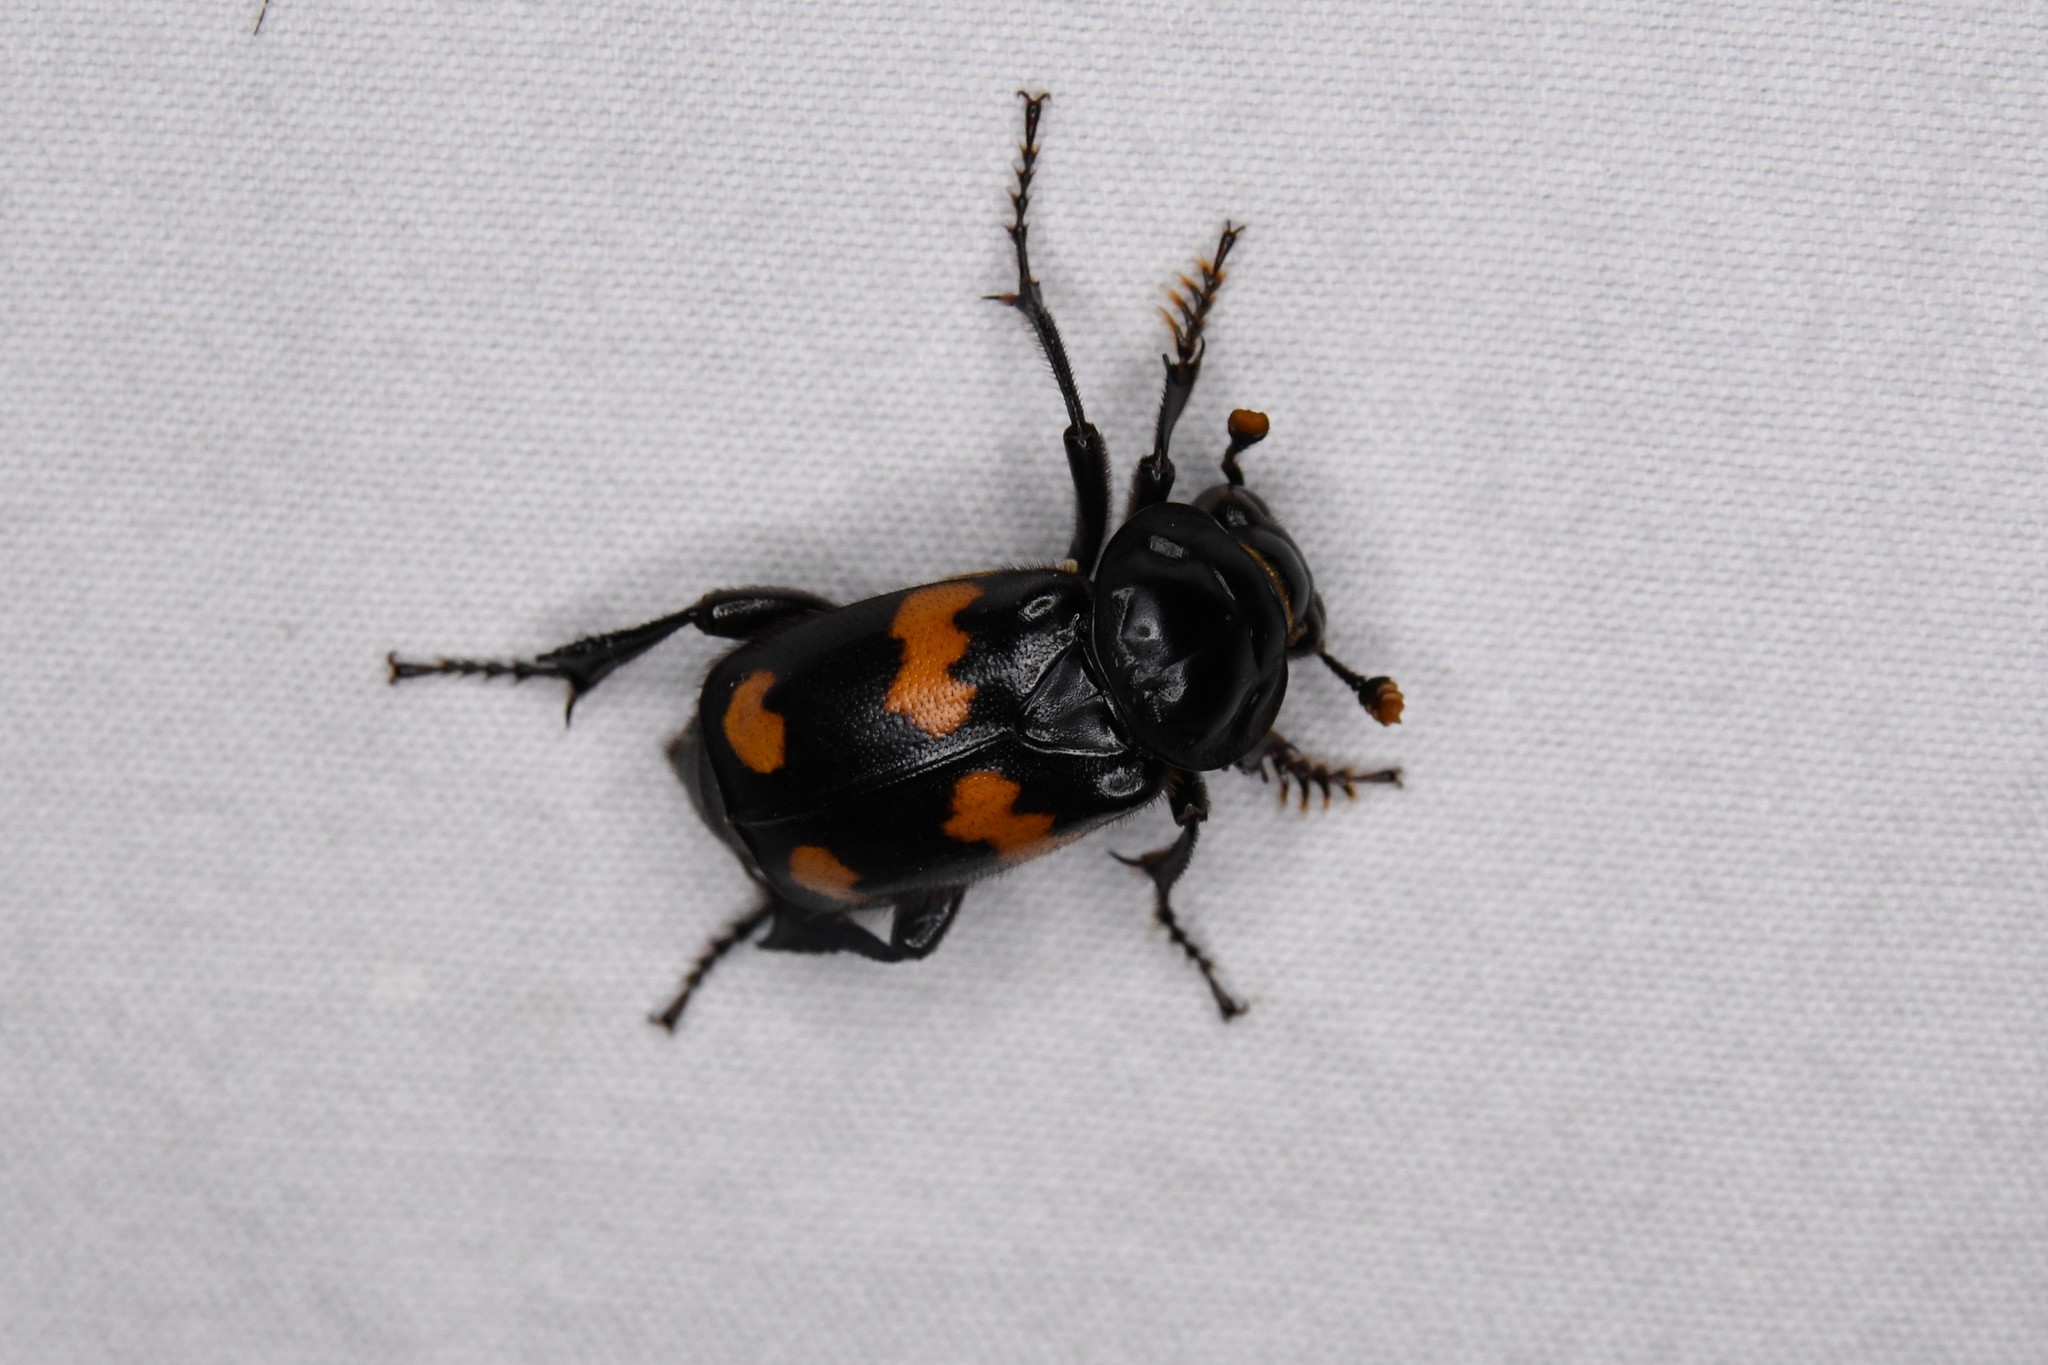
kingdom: Animalia
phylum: Arthropoda
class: Insecta
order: Coleoptera
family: Staphylinidae
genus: Nicrophorus
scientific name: Nicrophorus orbicollis
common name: Roundneck sexton beetle
